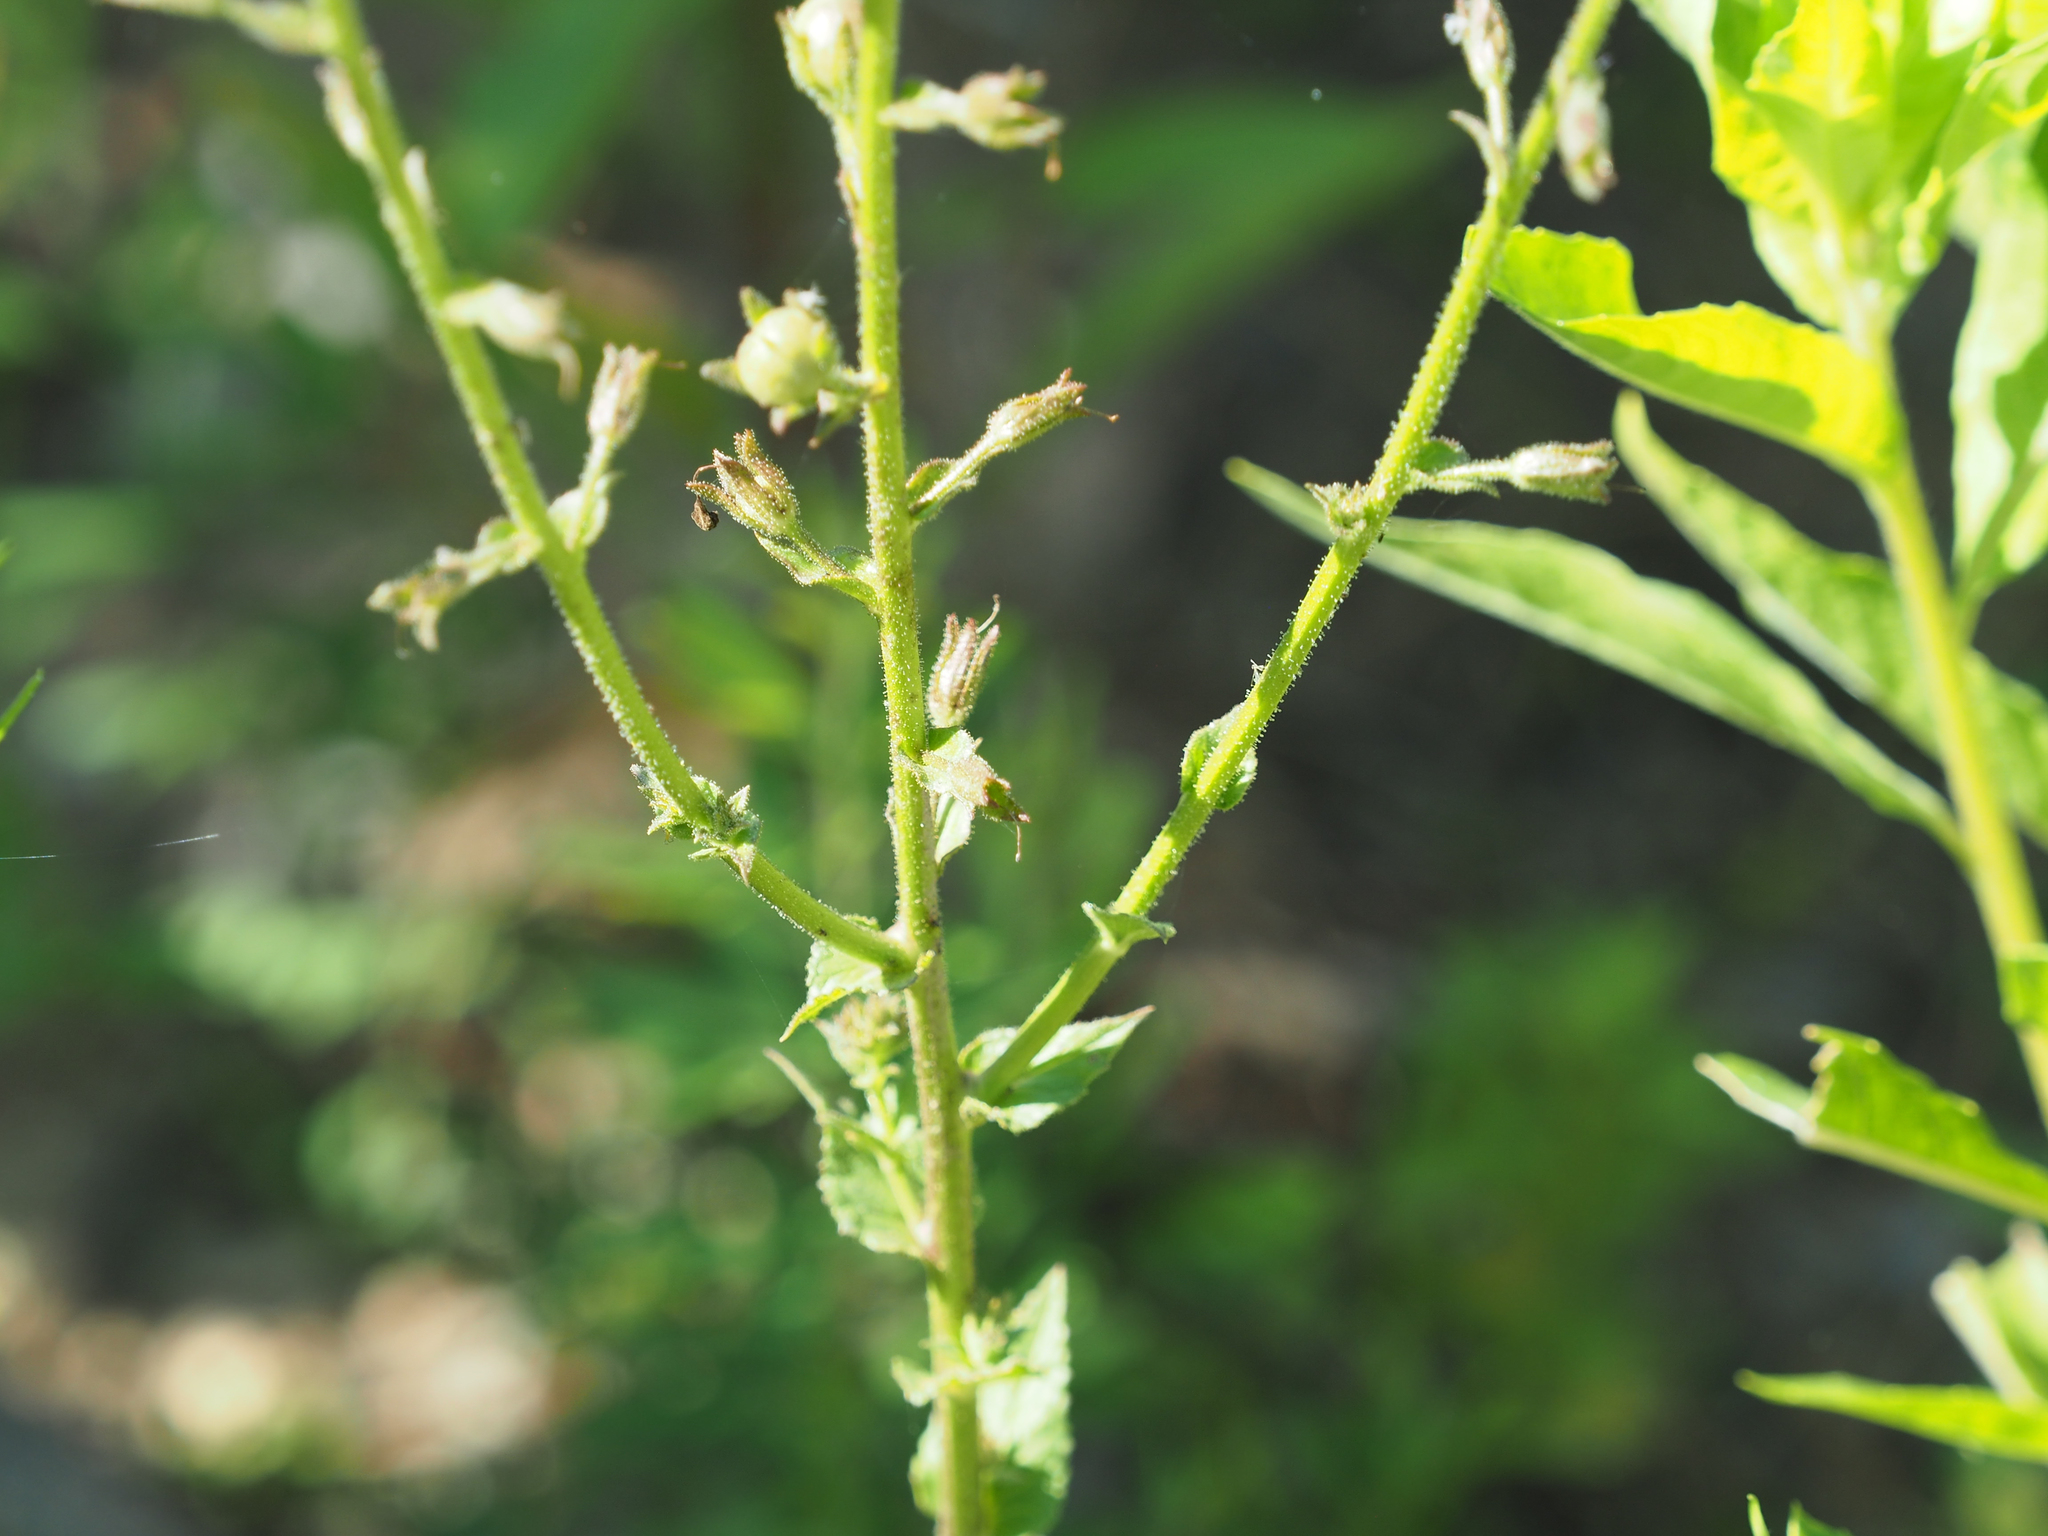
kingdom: Plantae
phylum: Tracheophyta
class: Magnoliopsida
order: Lamiales
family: Scrophulariaceae
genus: Verbascum
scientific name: Verbascum blattaria
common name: Moth mullein
